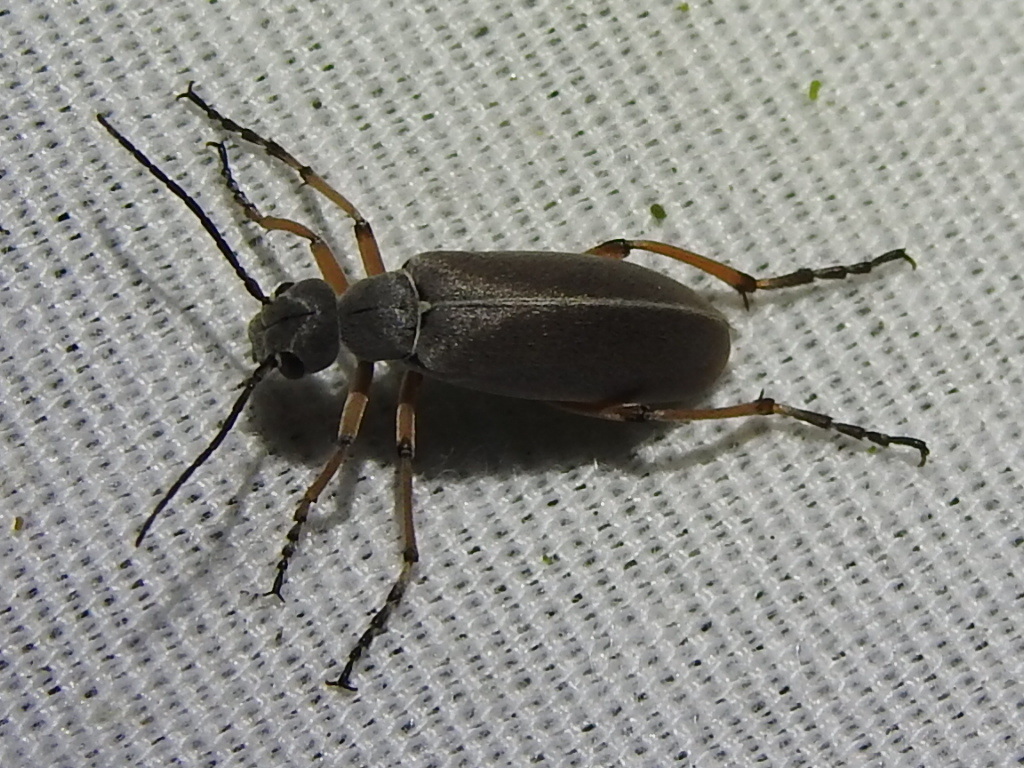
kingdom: Animalia
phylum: Arthropoda
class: Insecta
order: Coleoptera
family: Meloidae
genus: Epicauta
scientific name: Epicauta nigritarsis
